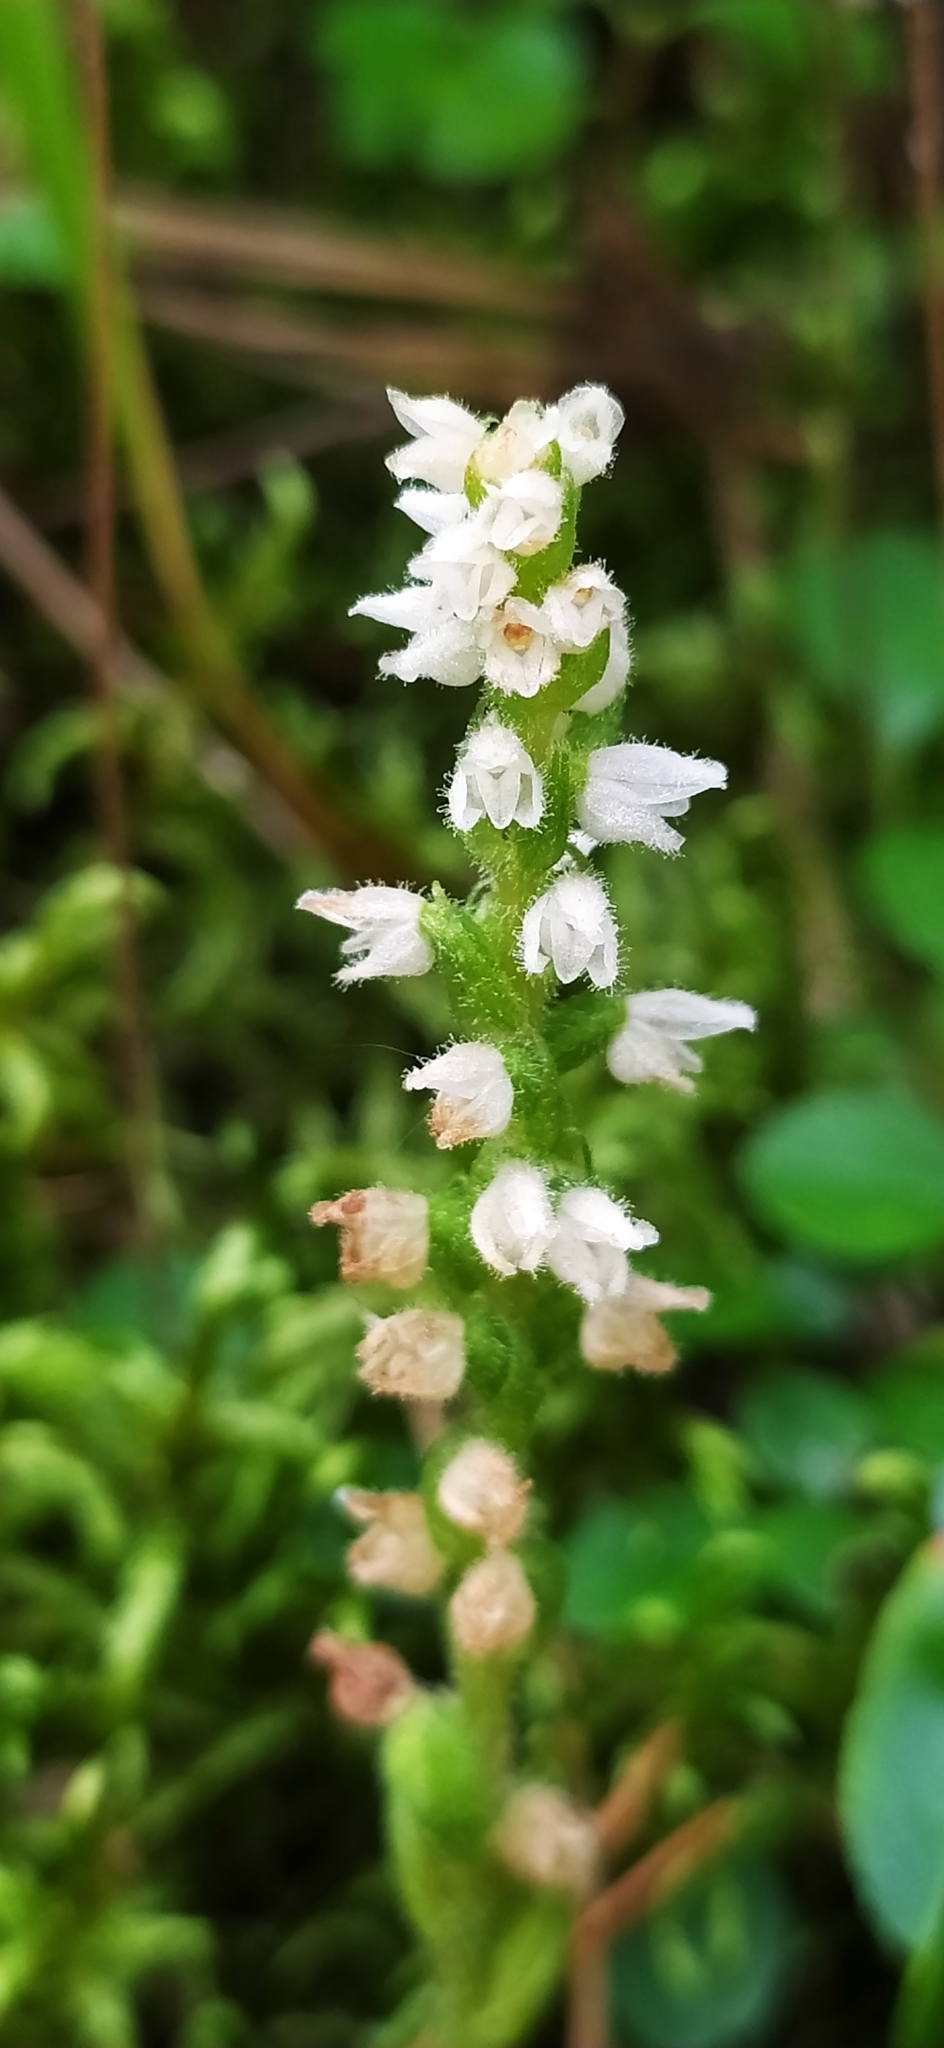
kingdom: Plantae
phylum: Tracheophyta
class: Liliopsida
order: Asparagales
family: Orchidaceae
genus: Goodyera
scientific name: Goodyera repens
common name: Creeping lady's-tresses
